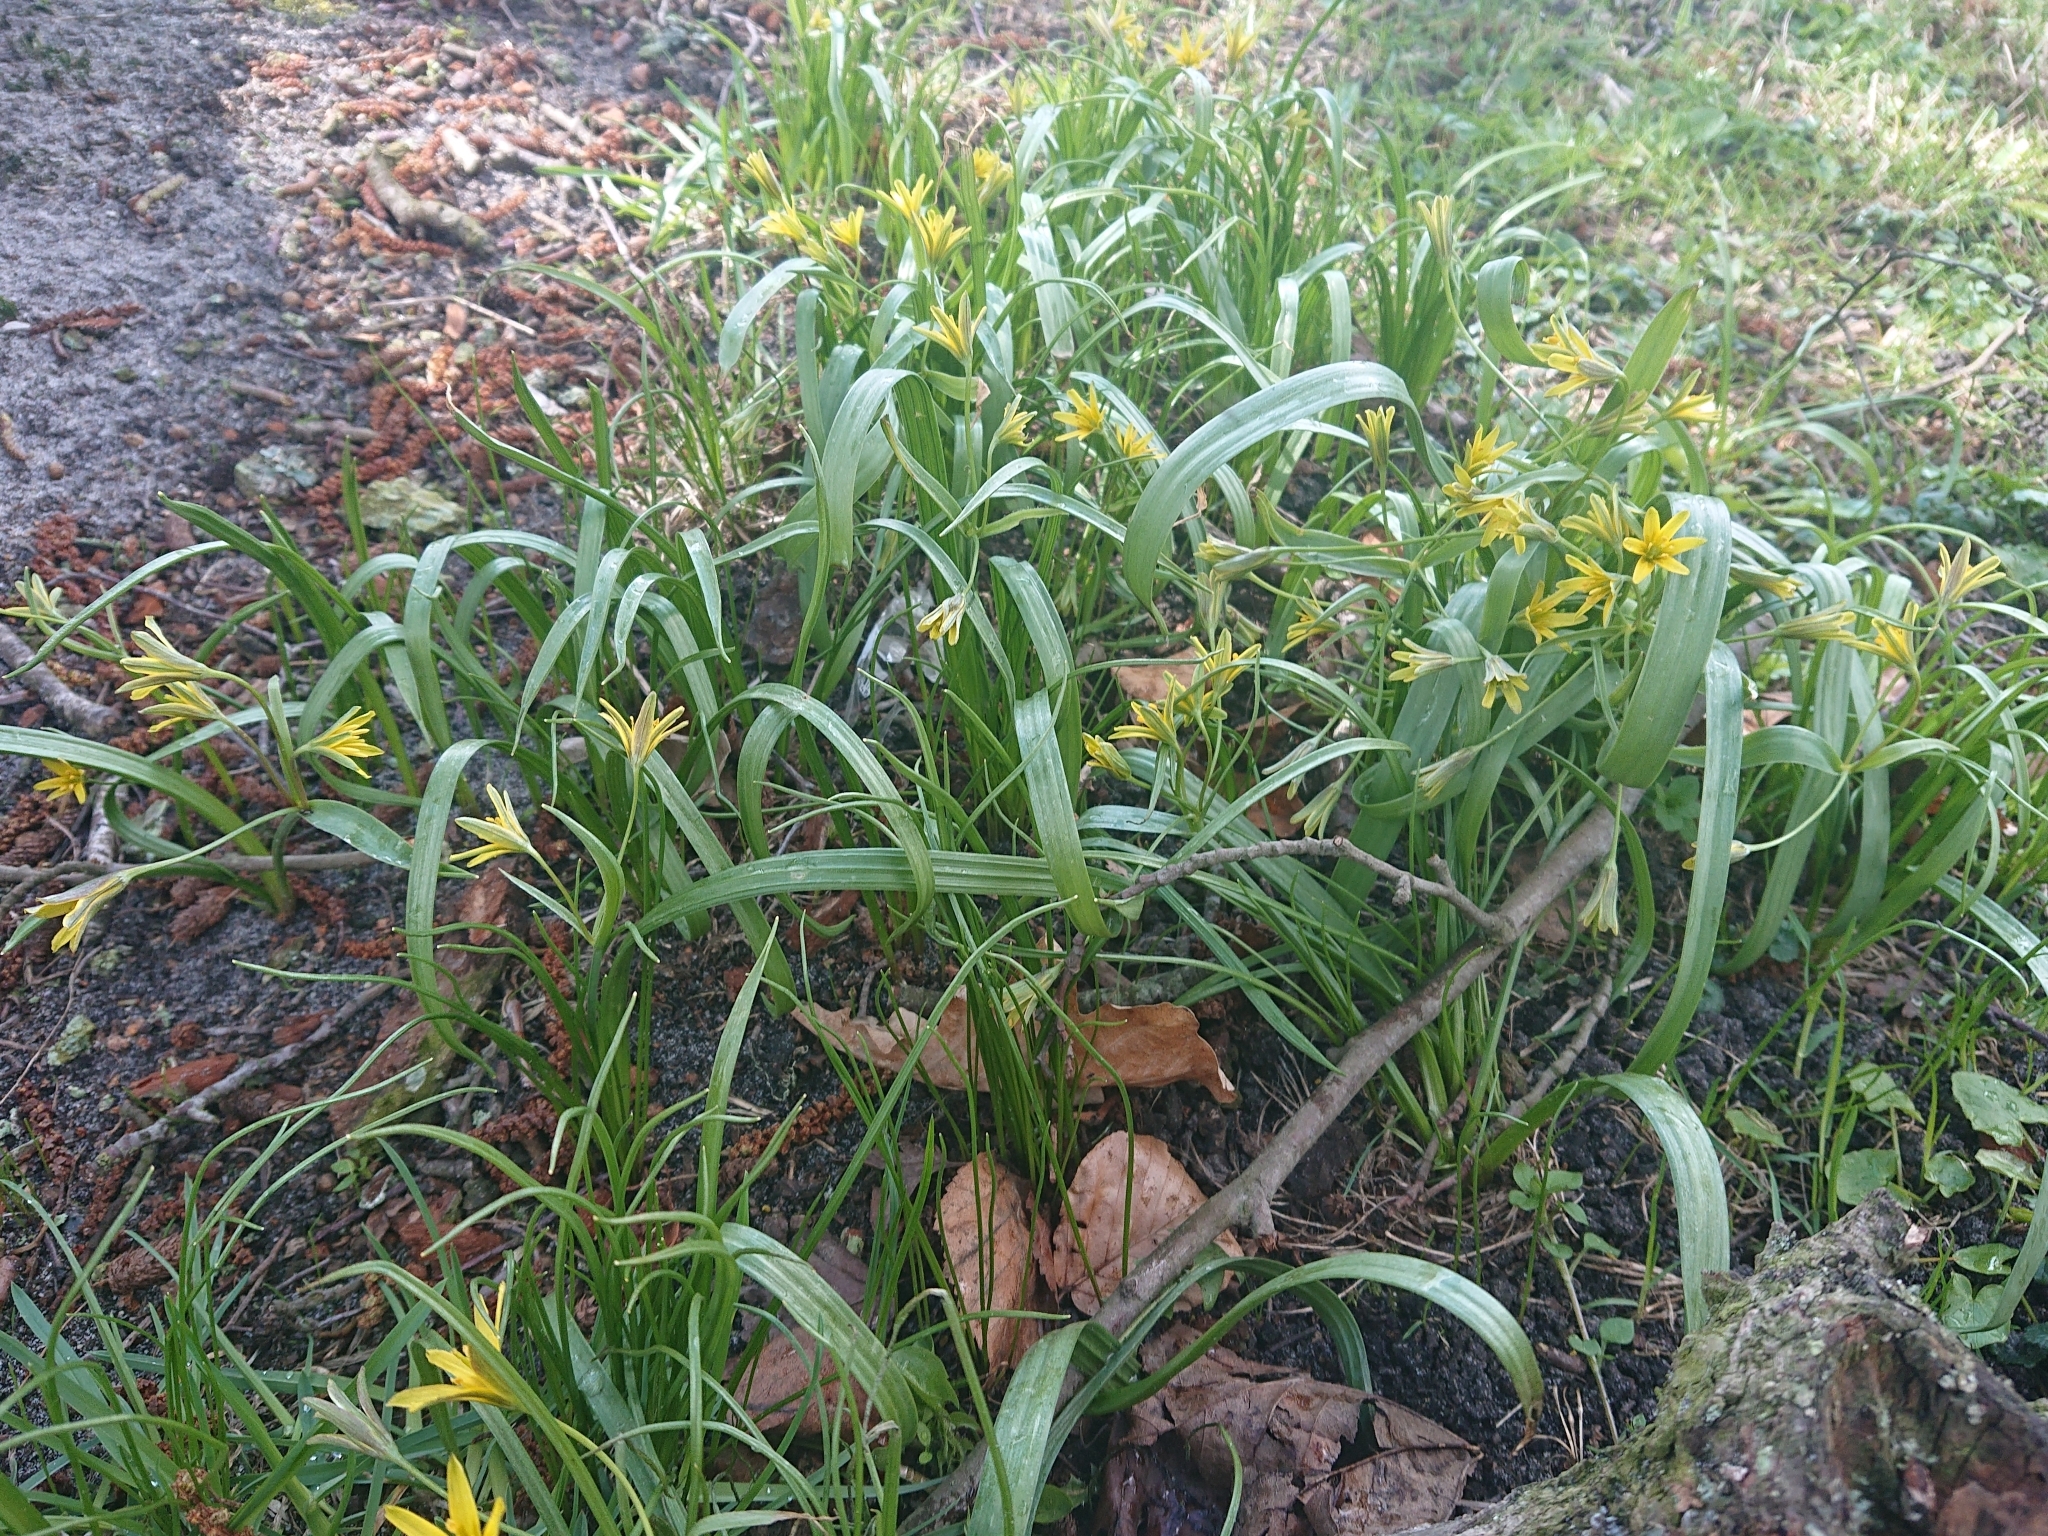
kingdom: Plantae
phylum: Tracheophyta
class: Liliopsida
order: Liliales
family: Liliaceae
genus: Gagea
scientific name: Gagea lutea
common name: Yellow star-of-bethlehem
